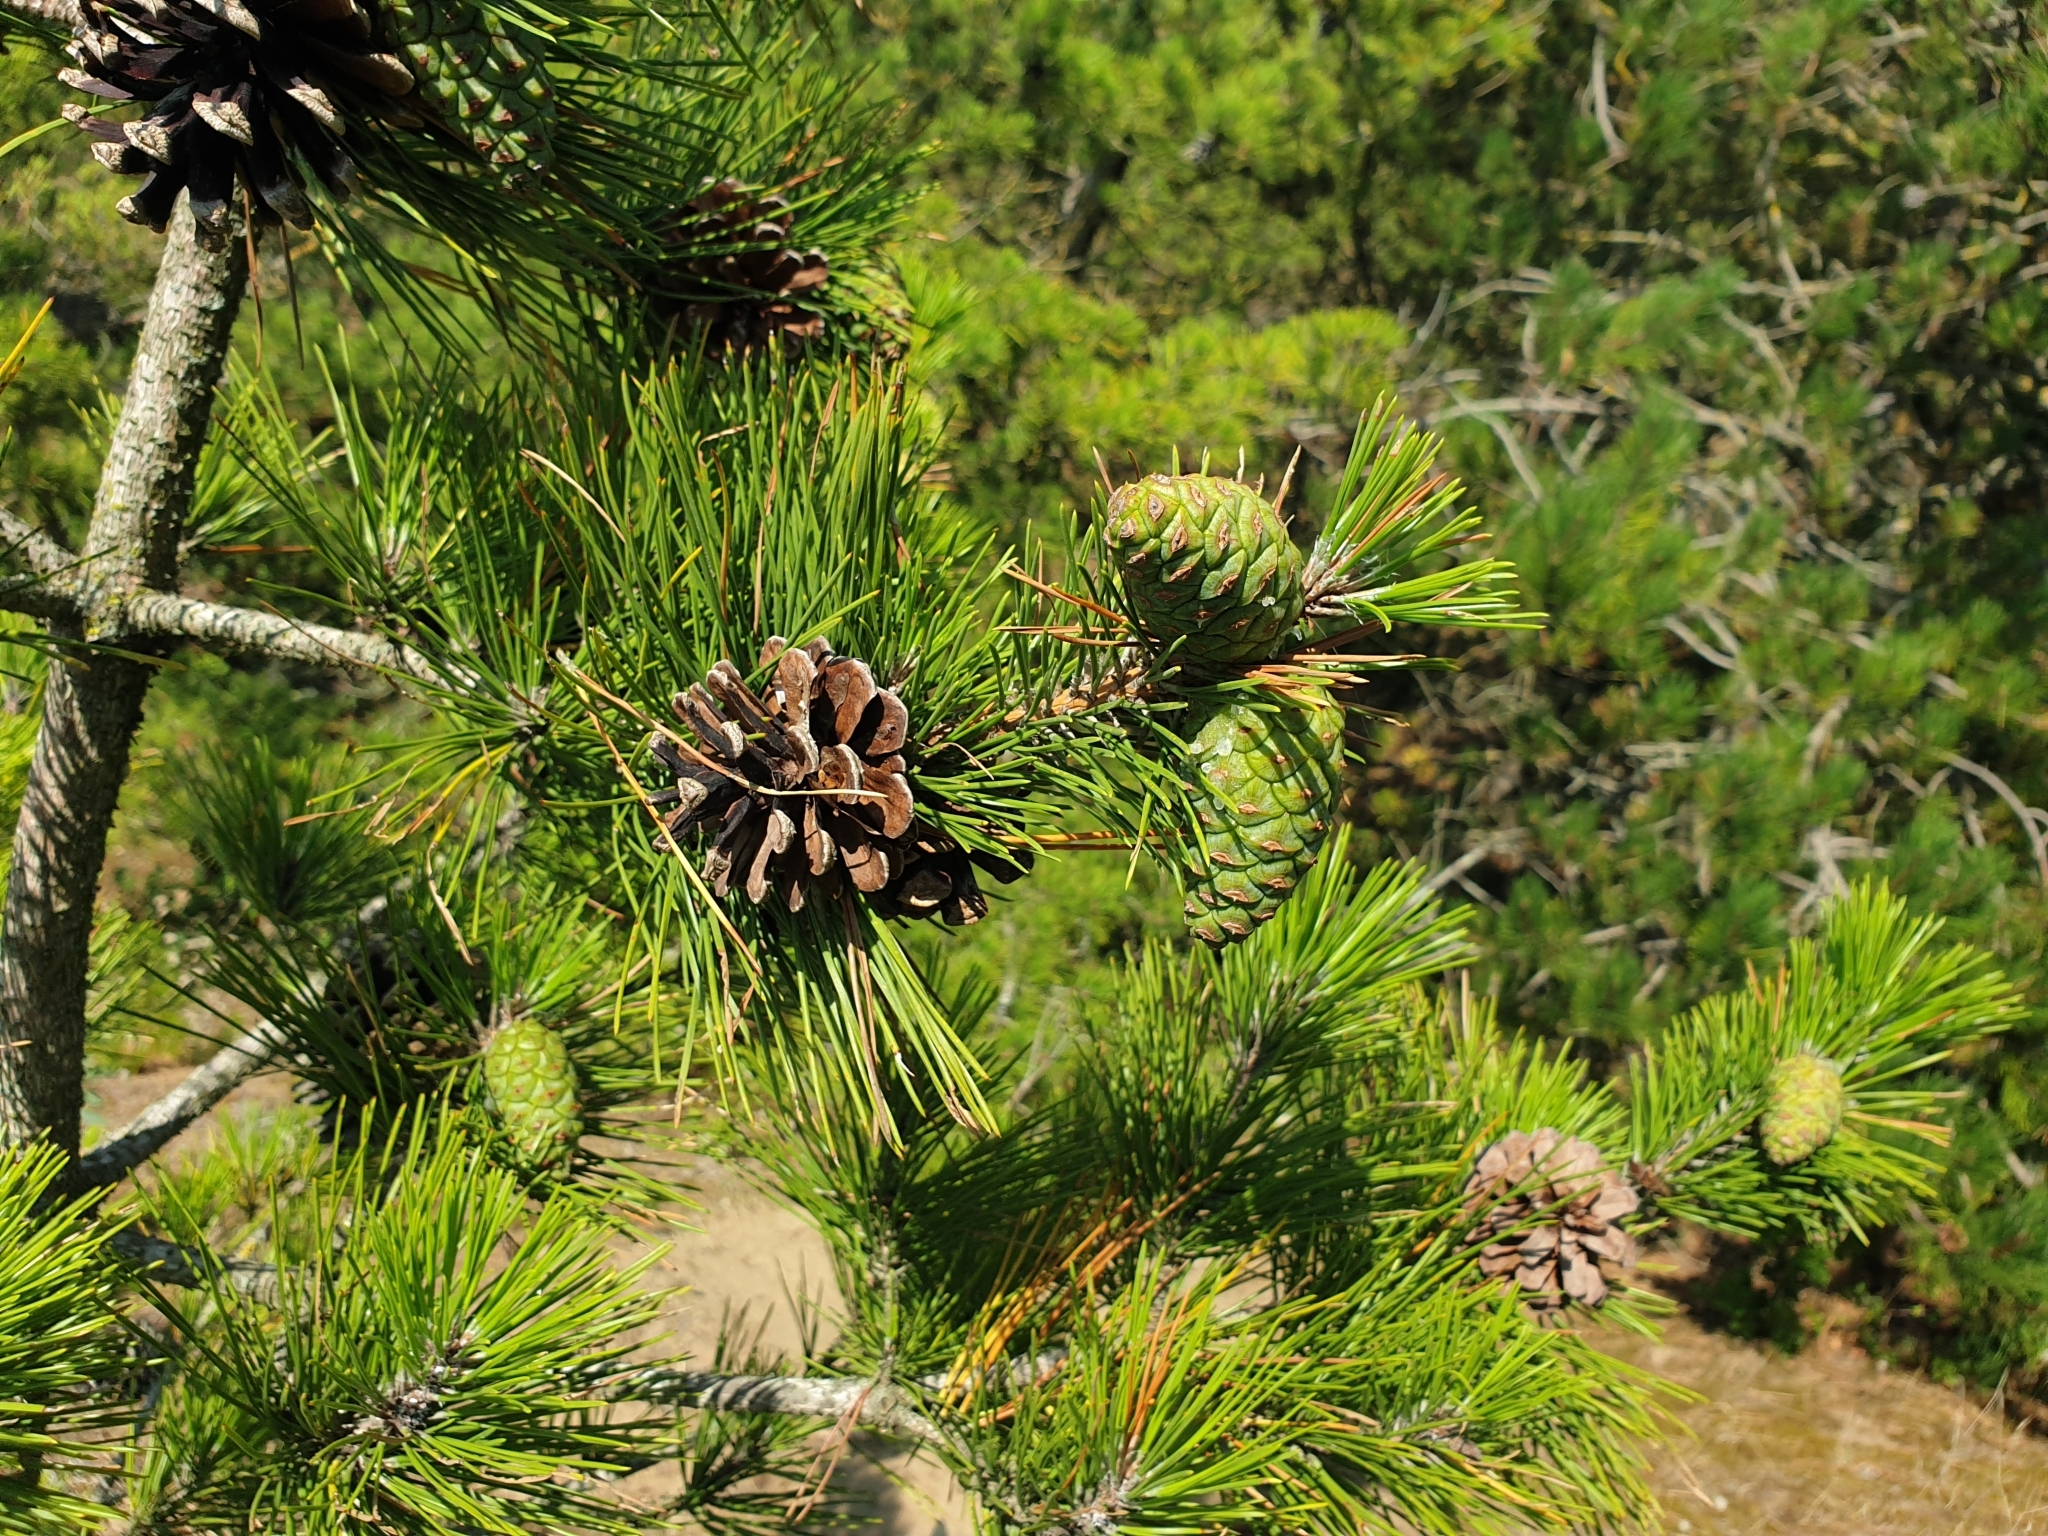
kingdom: Plantae
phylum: Tracheophyta
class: Pinopsida
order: Pinales
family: Pinaceae
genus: Pinus
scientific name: Pinus nigra
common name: Austrian pine
